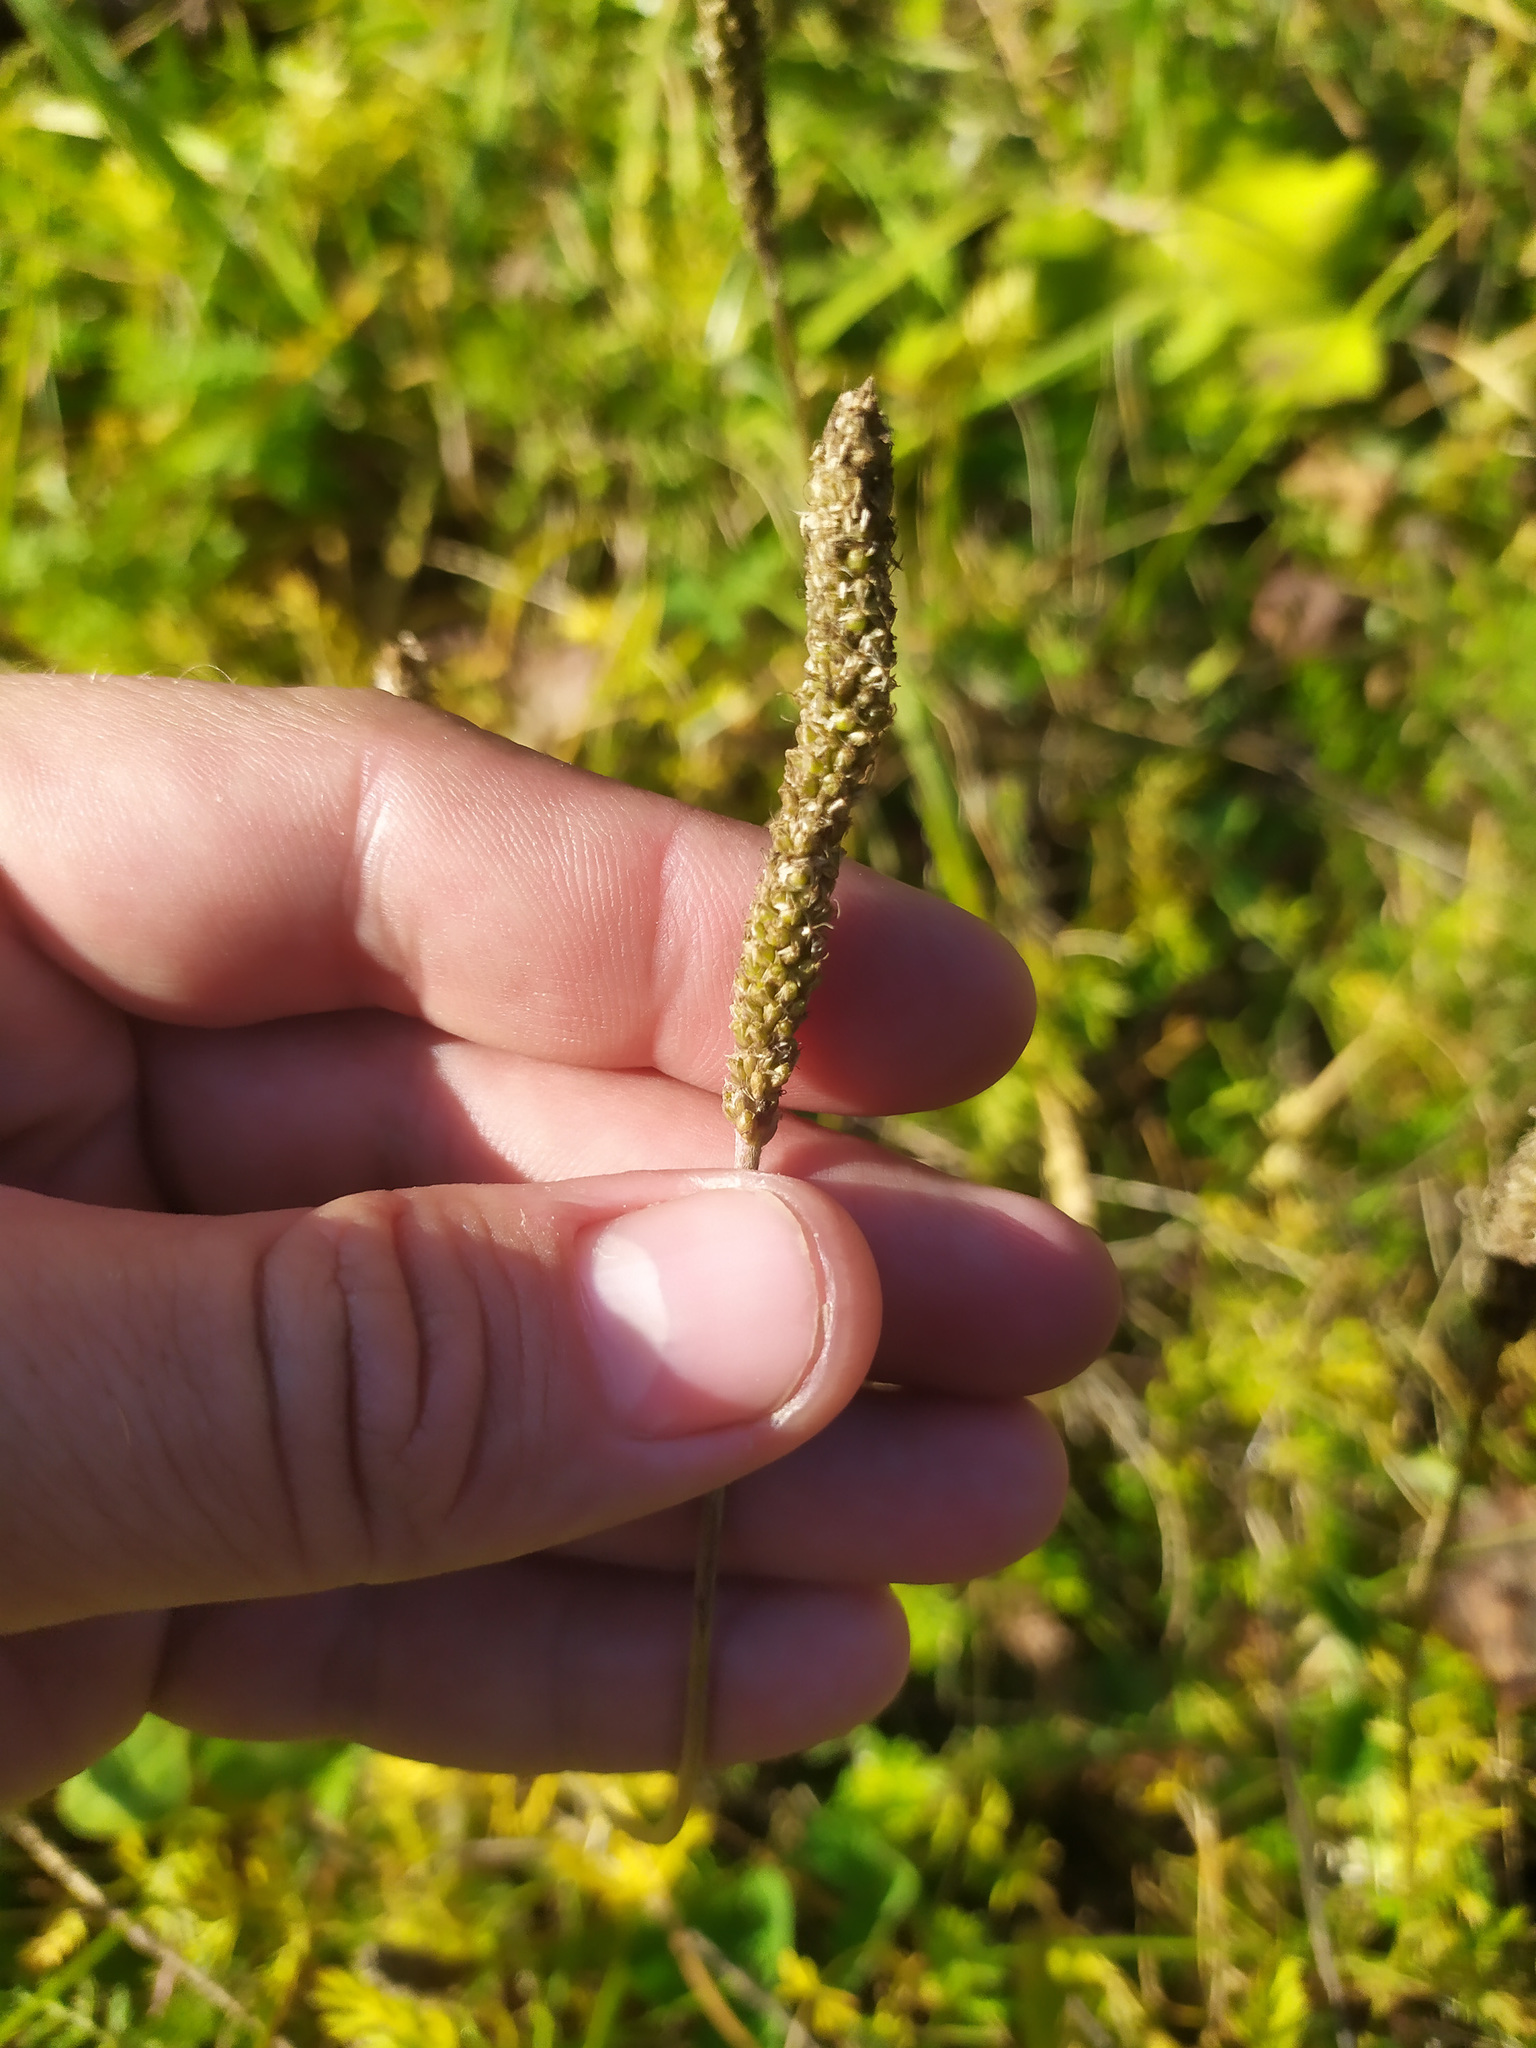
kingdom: Plantae
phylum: Tracheophyta
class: Magnoliopsida
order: Lamiales
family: Plantaginaceae
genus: Plantago
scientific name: Plantago major
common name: Common plantain
